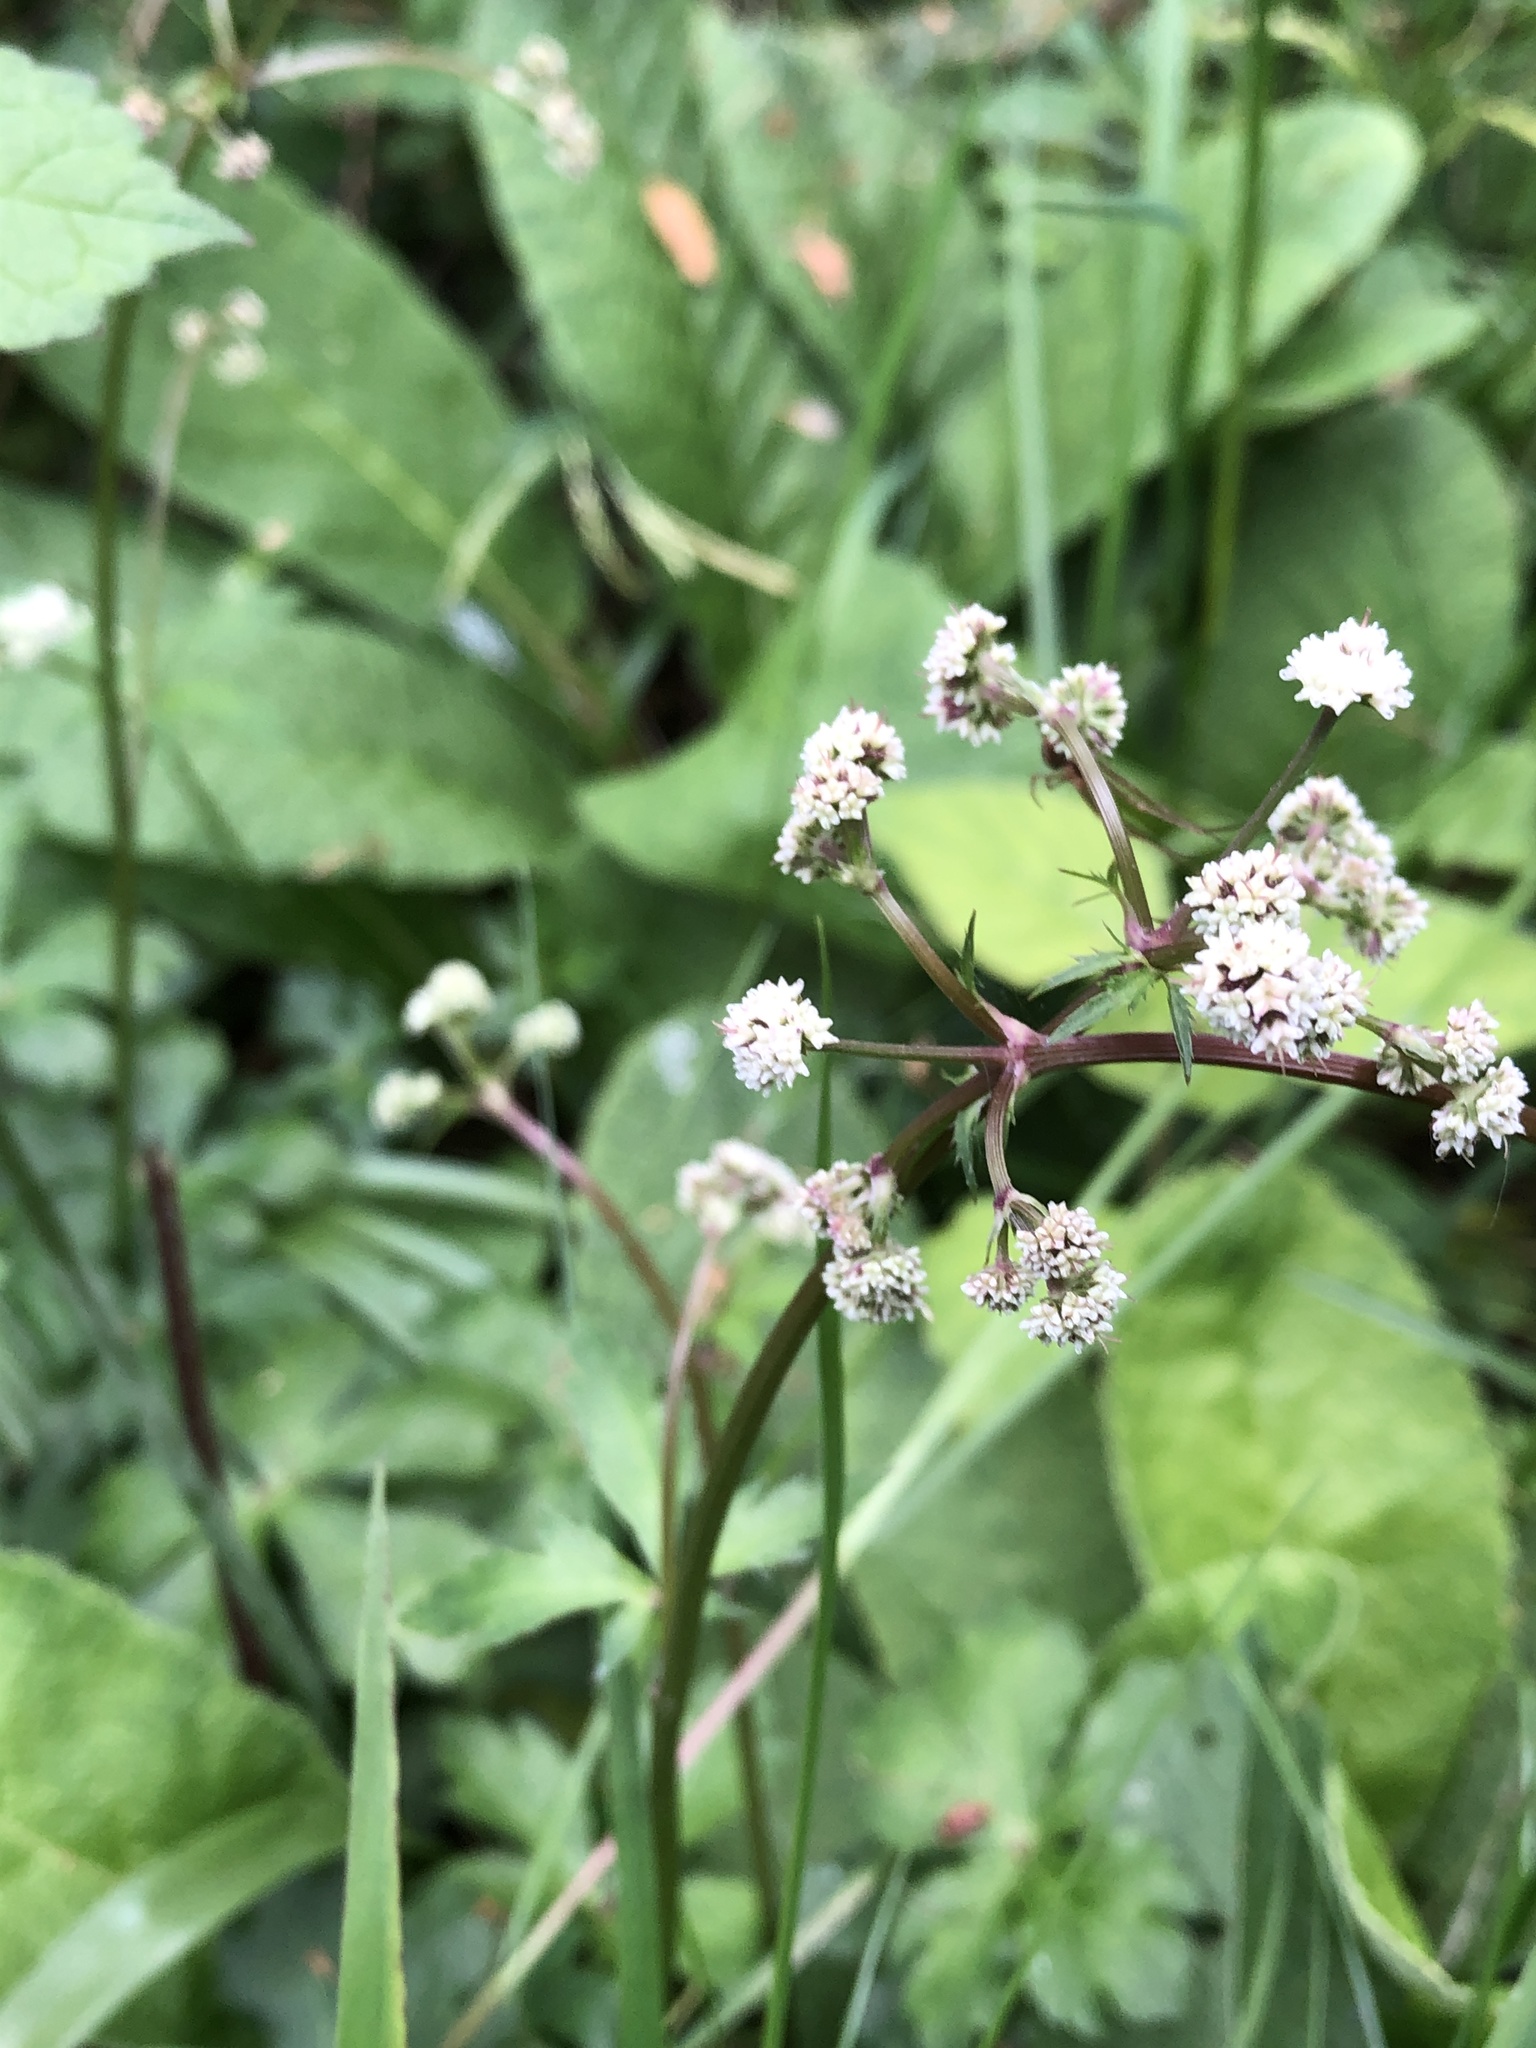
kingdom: Plantae
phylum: Tracheophyta
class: Magnoliopsida
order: Apiales
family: Apiaceae
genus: Sanicula
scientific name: Sanicula europaea
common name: Sanicle
